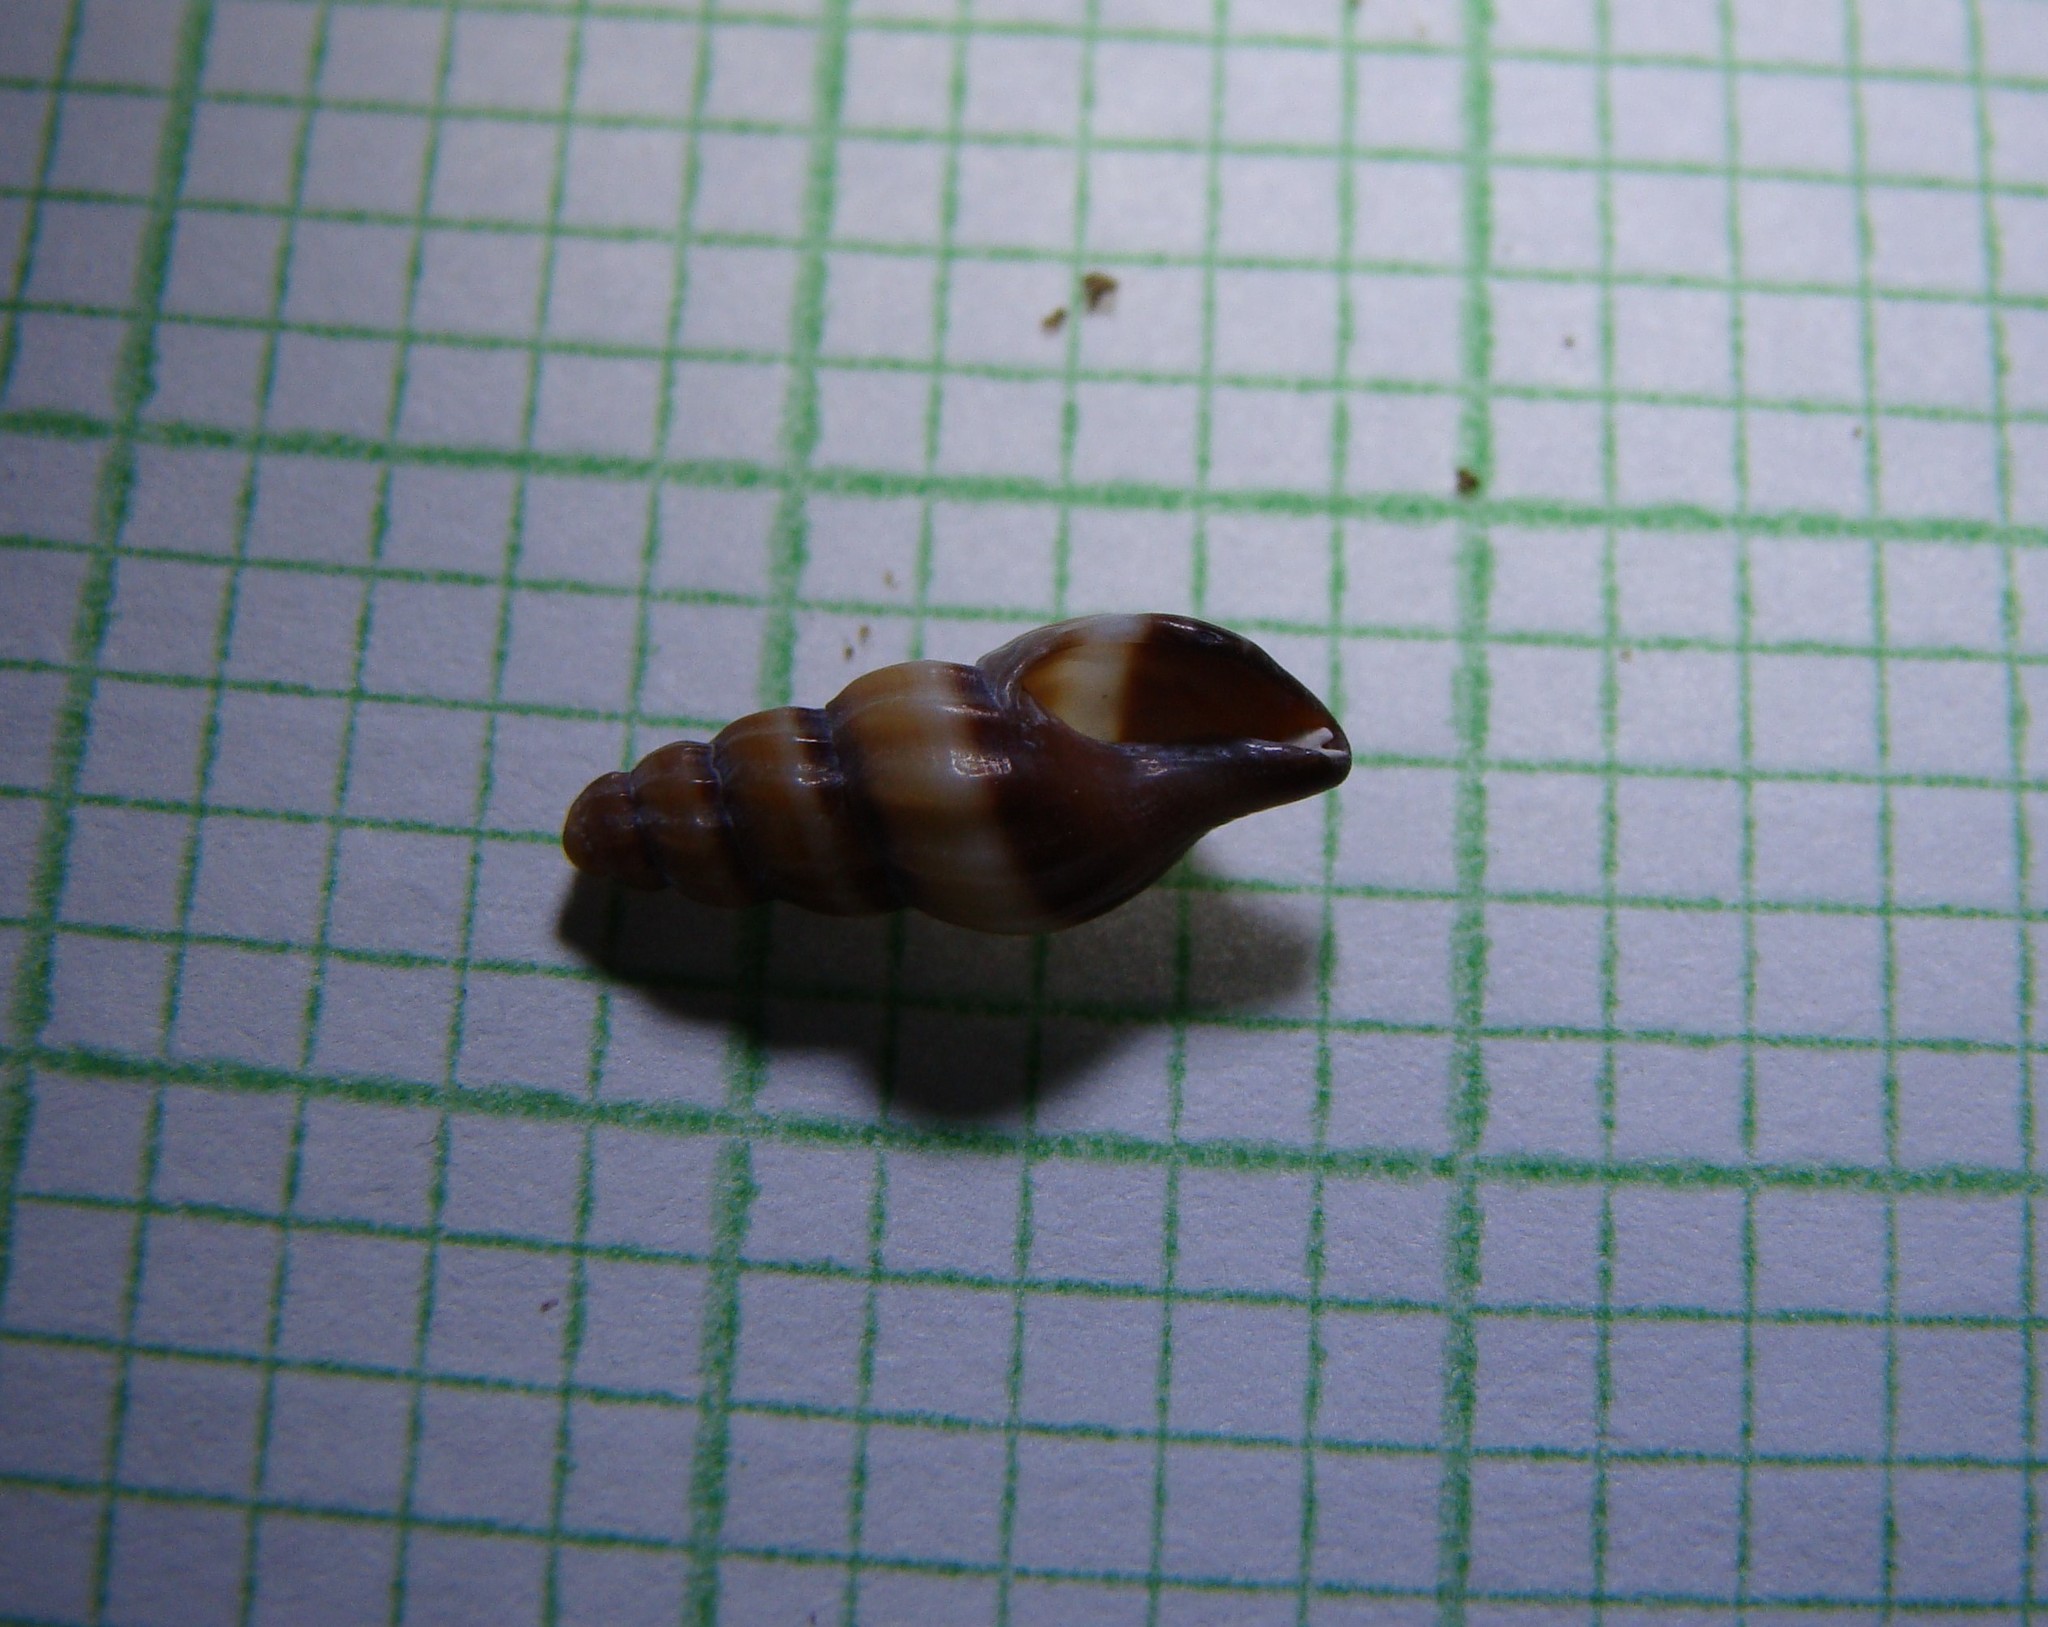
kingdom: Animalia
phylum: Mollusca
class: Gastropoda
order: Neogastropoda
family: Mangeliidae
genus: Neoguraleus
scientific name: Neoguraleus
